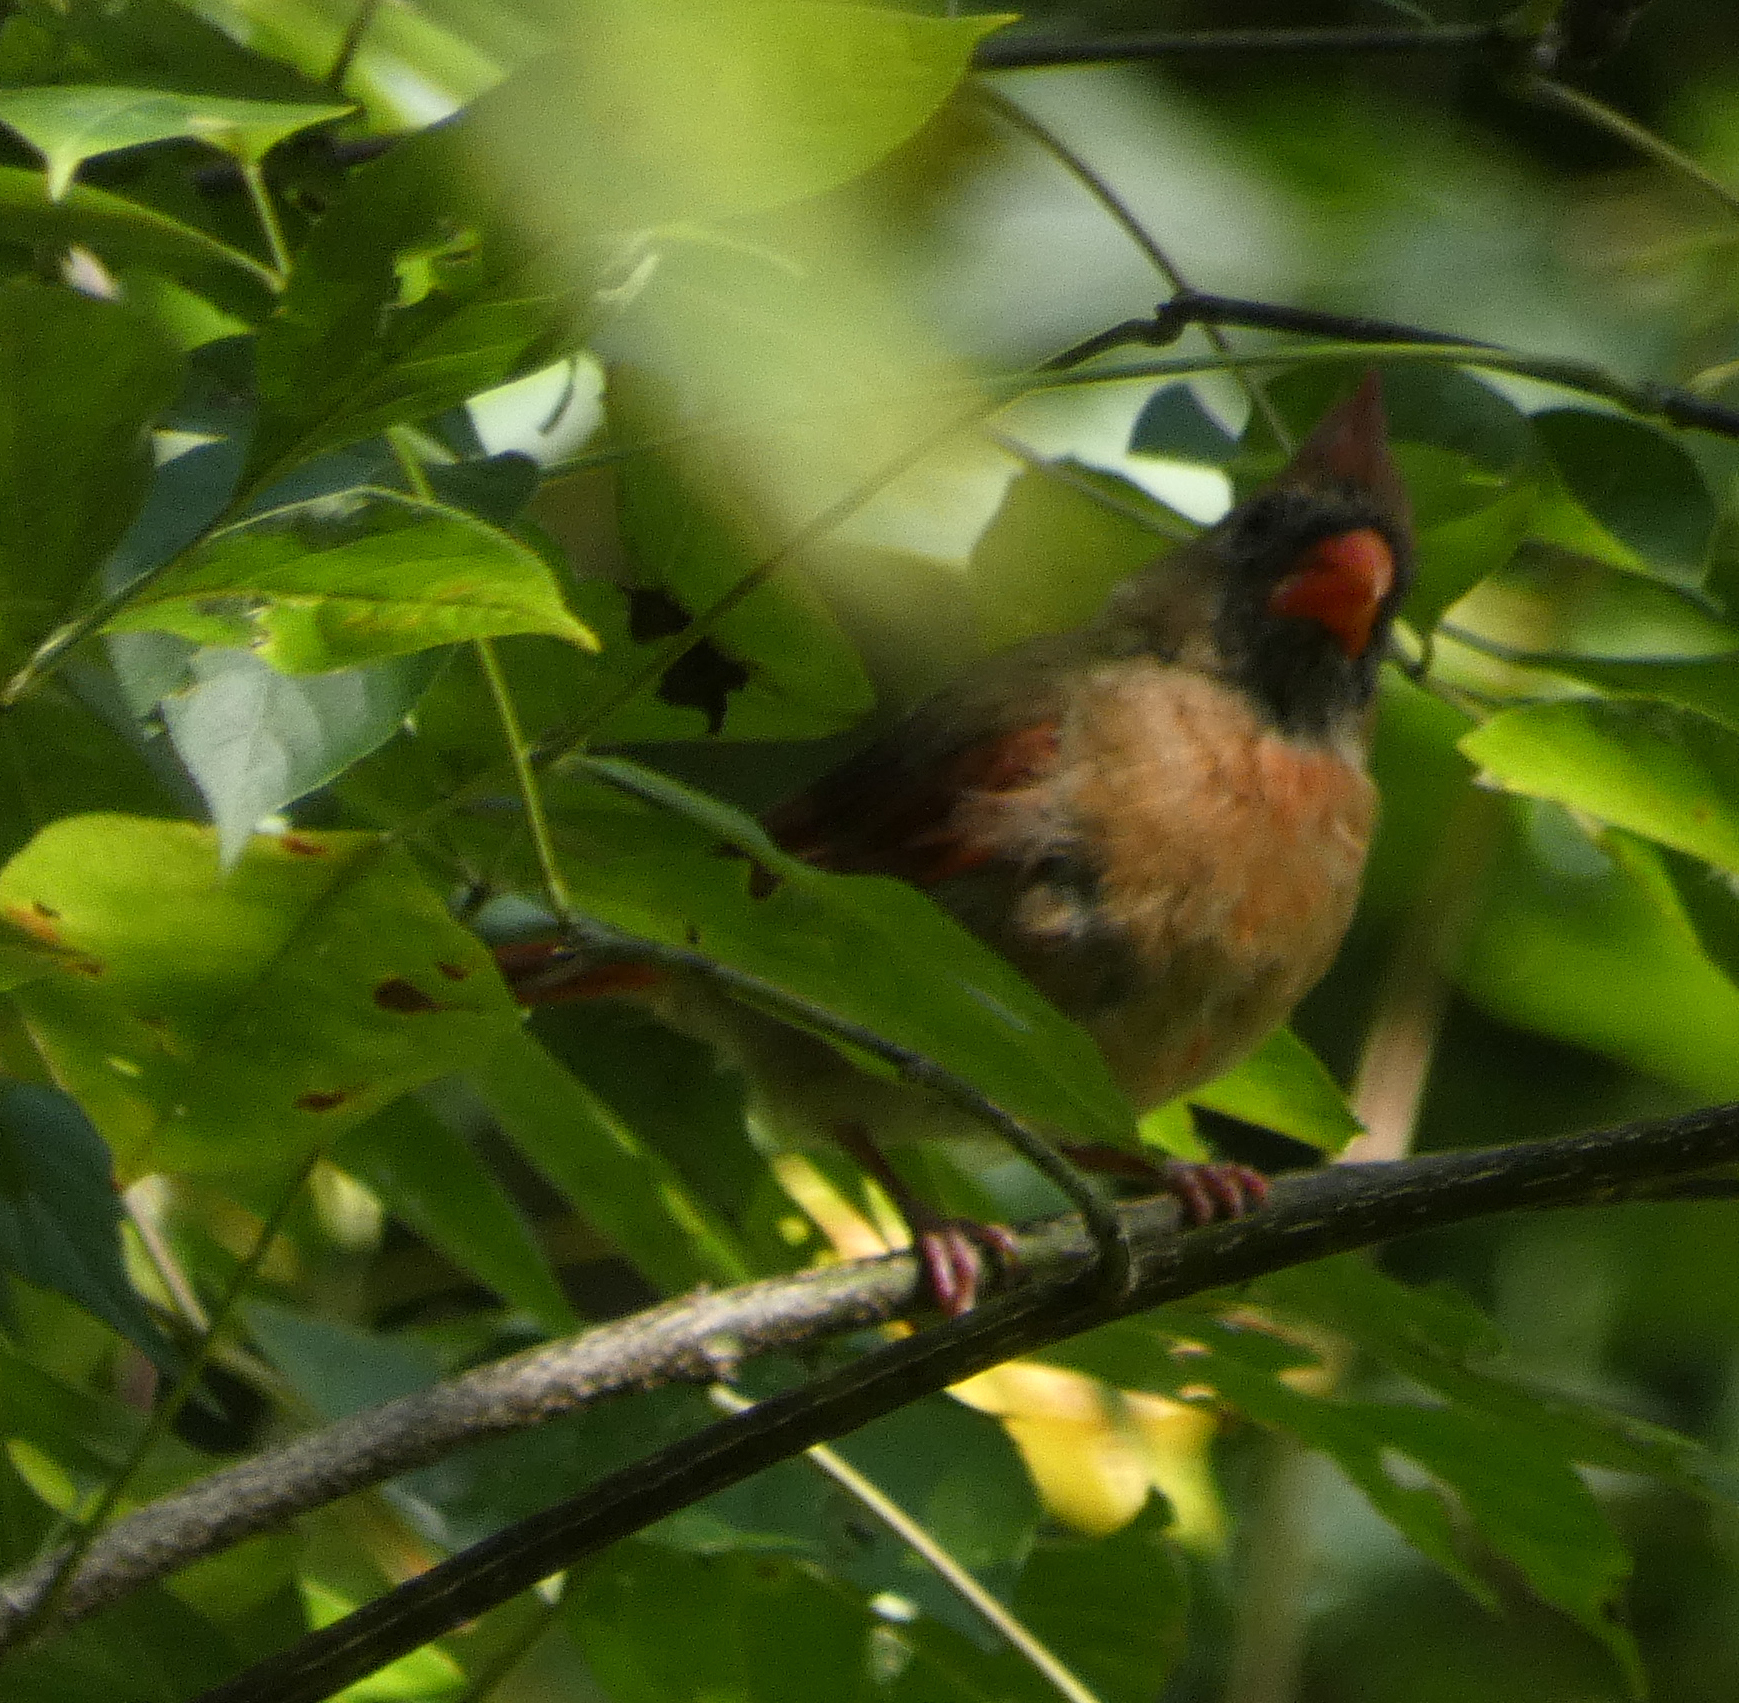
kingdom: Animalia
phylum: Chordata
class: Aves
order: Passeriformes
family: Cardinalidae
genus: Cardinalis
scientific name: Cardinalis cardinalis
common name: Northern cardinal
